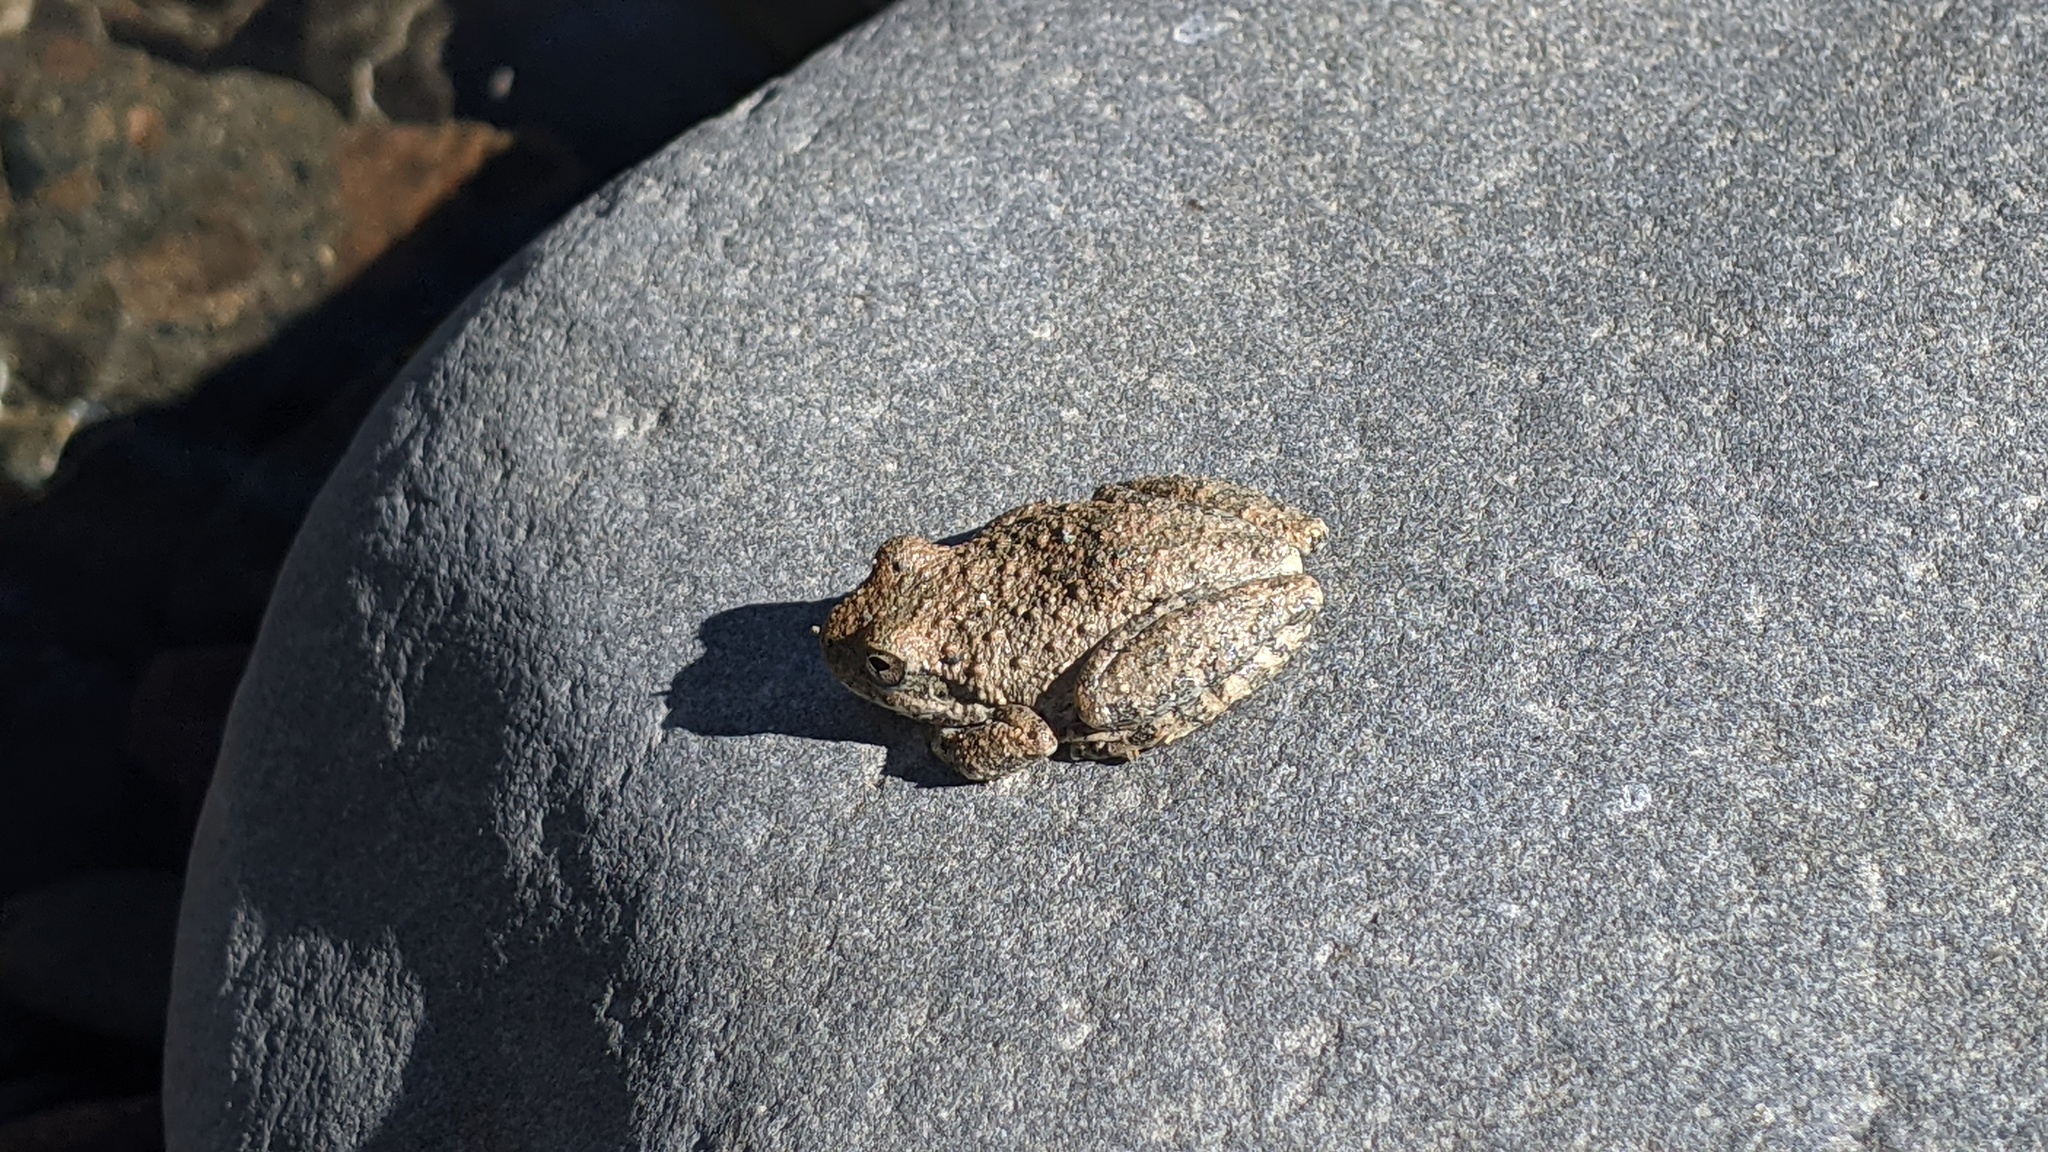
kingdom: Animalia
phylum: Chordata
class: Amphibia
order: Anura
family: Hylidae
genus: Pseudacris
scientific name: Pseudacris cadaverina
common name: California chorus frog
